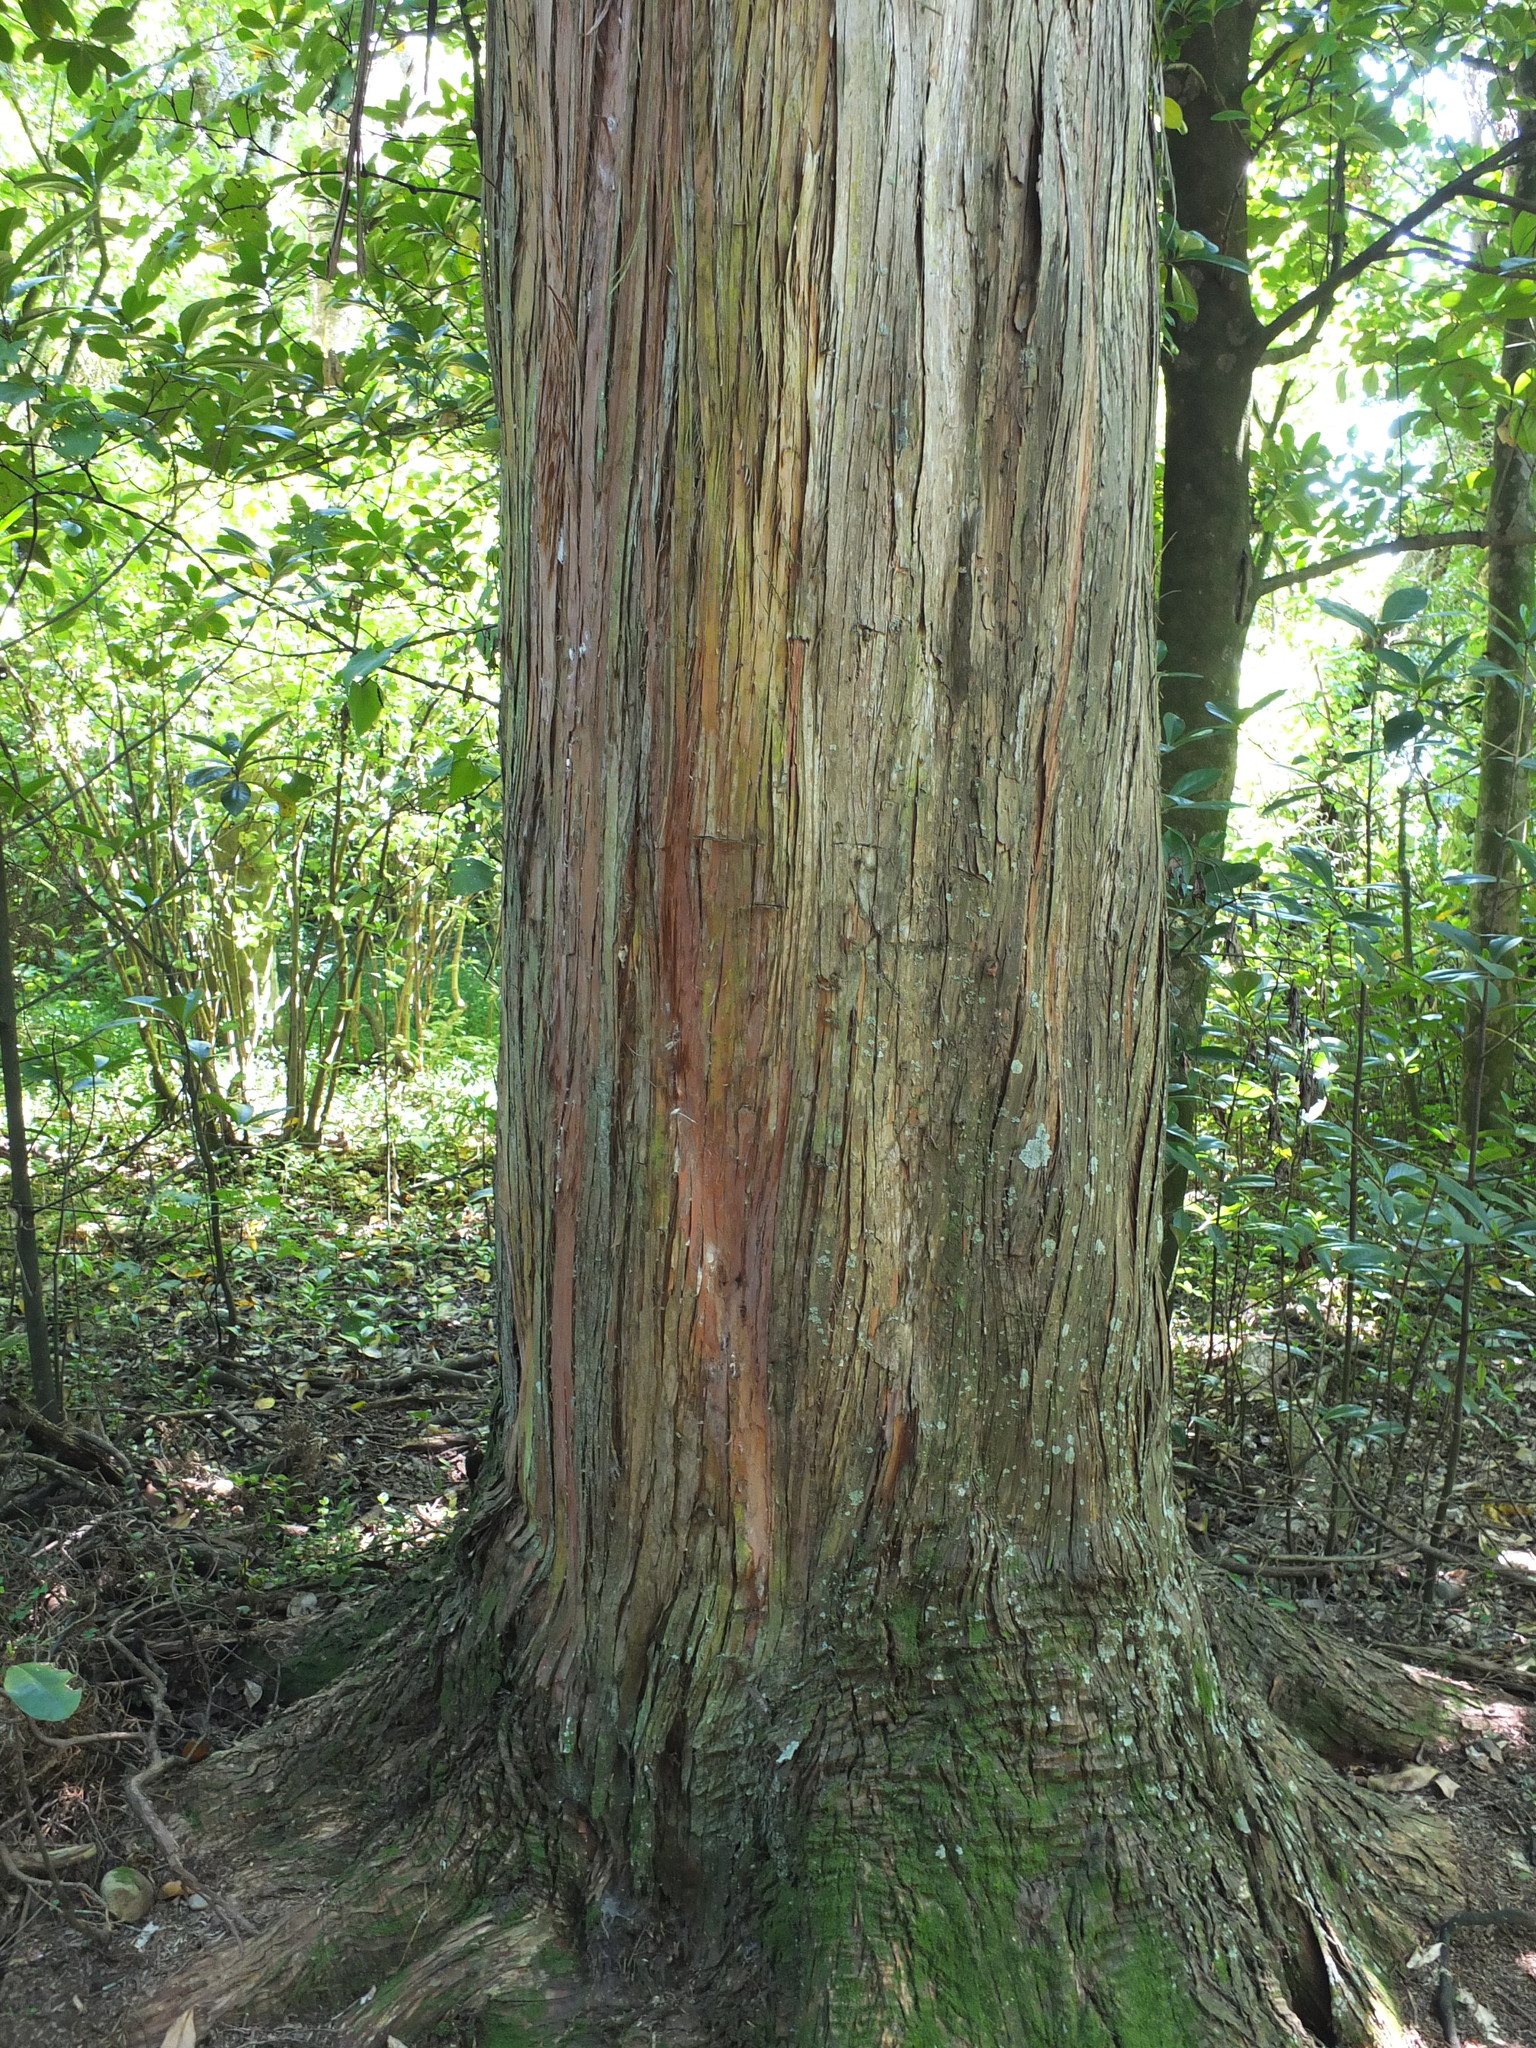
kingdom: Plantae
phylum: Tracheophyta
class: Pinopsida
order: Pinales
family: Podocarpaceae
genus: Podocarpus
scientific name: Podocarpus totara
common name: Totara
